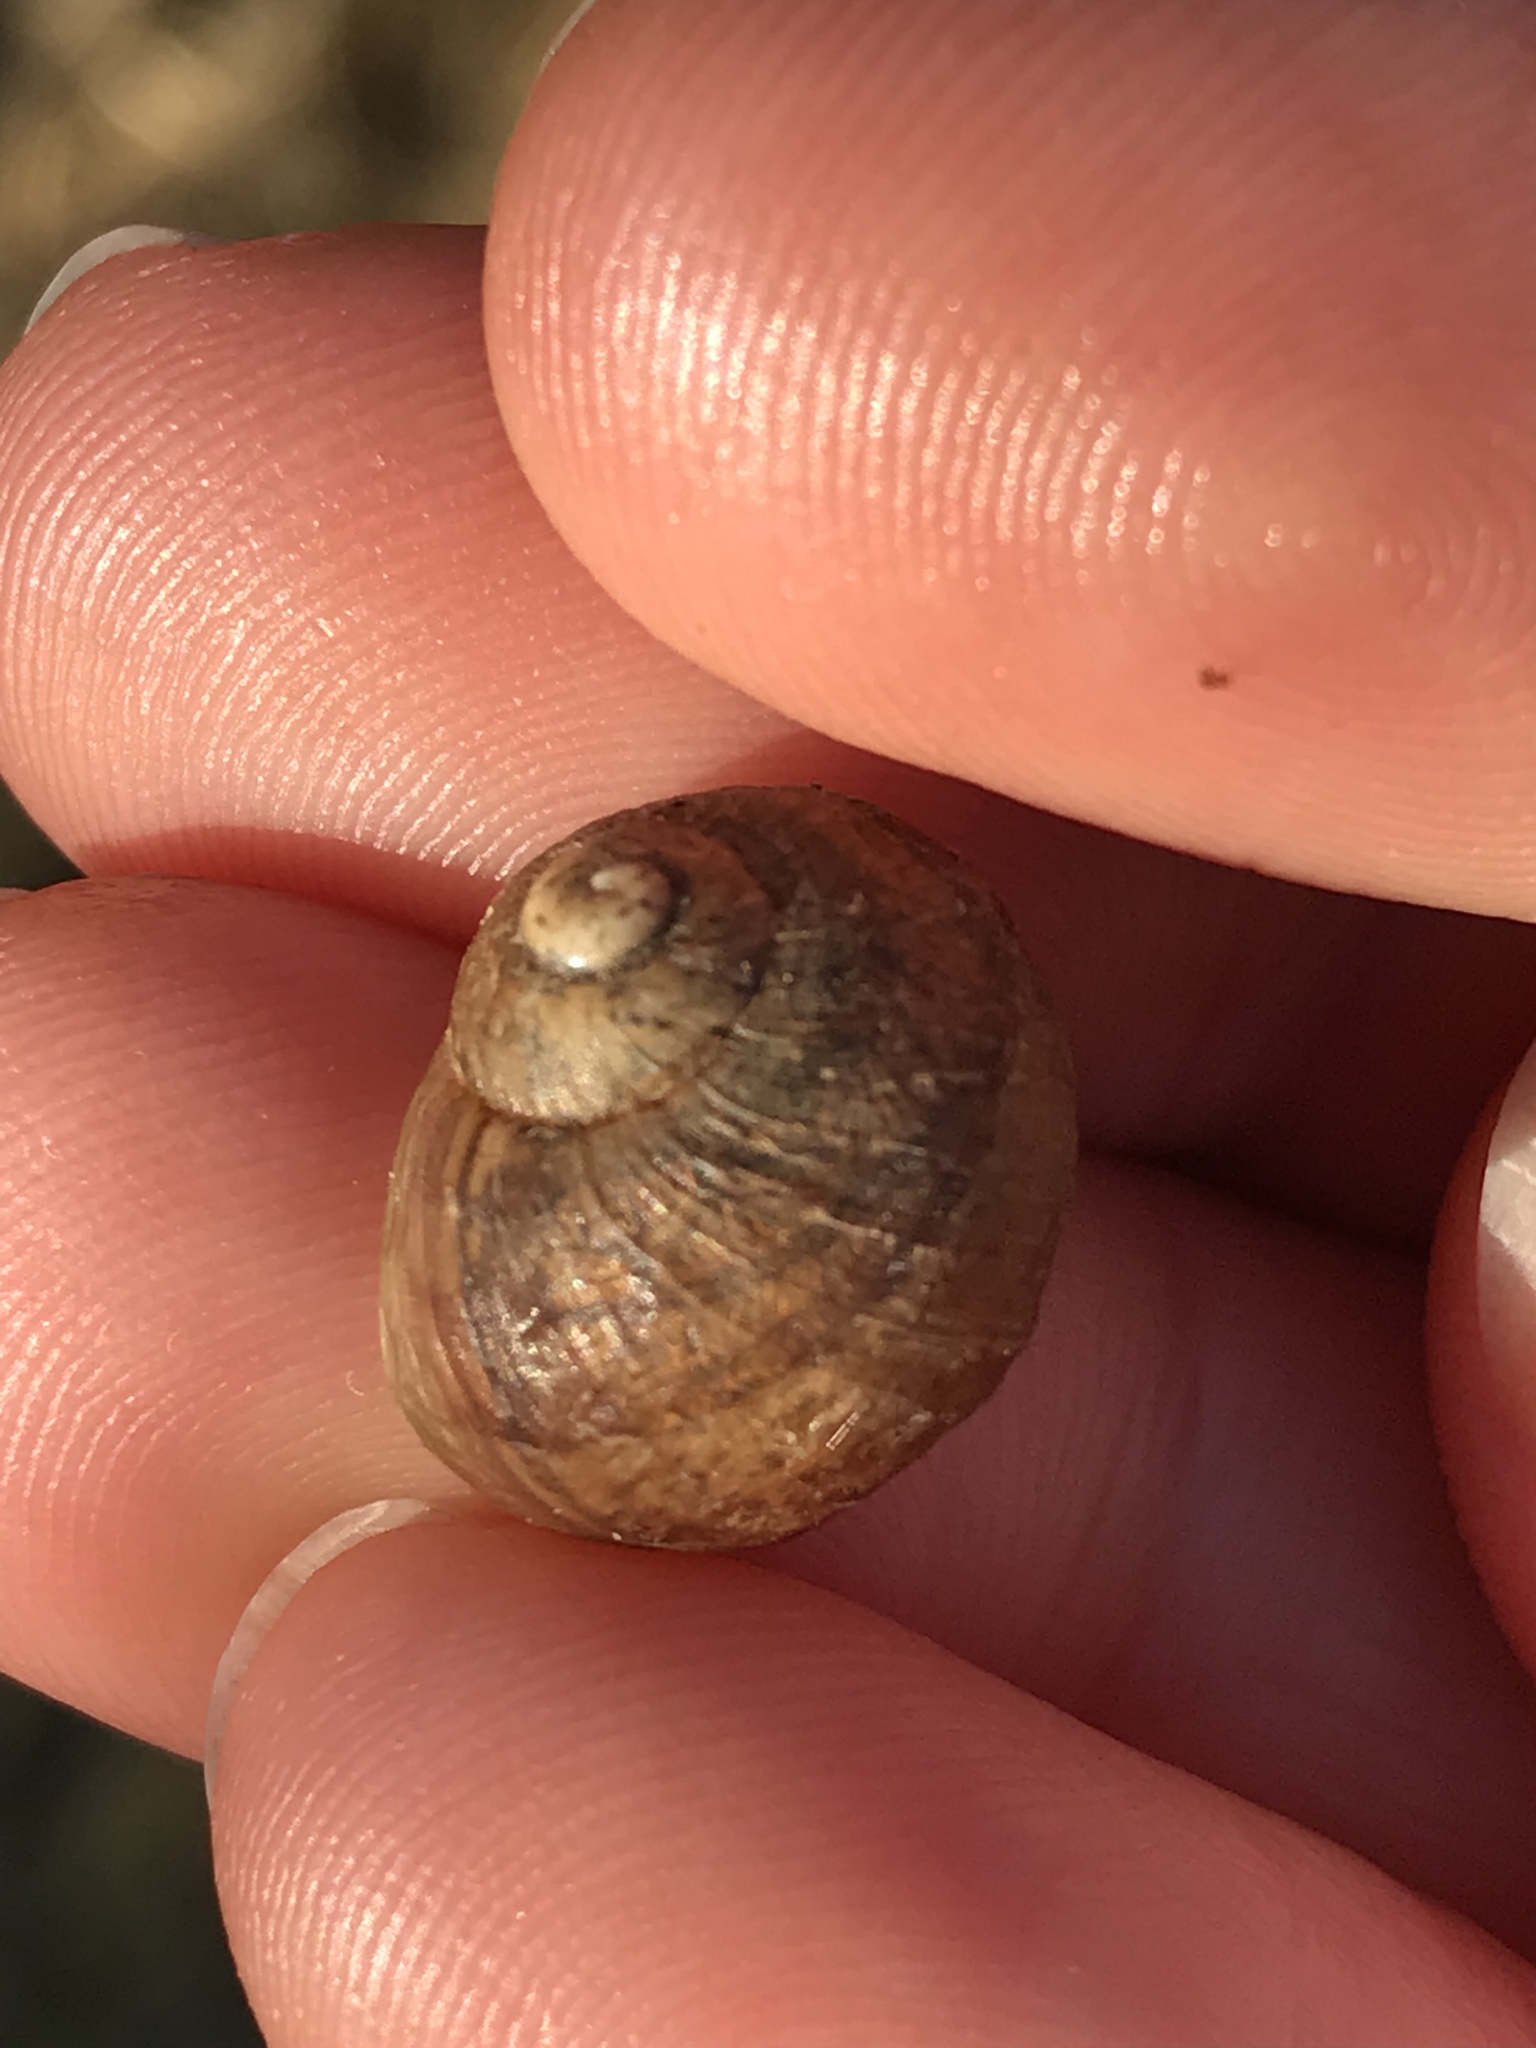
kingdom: Animalia
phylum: Mollusca
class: Gastropoda
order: Stylommatophora
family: Helicidae
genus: Cornu
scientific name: Cornu aspersum
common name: Brown garden snail
